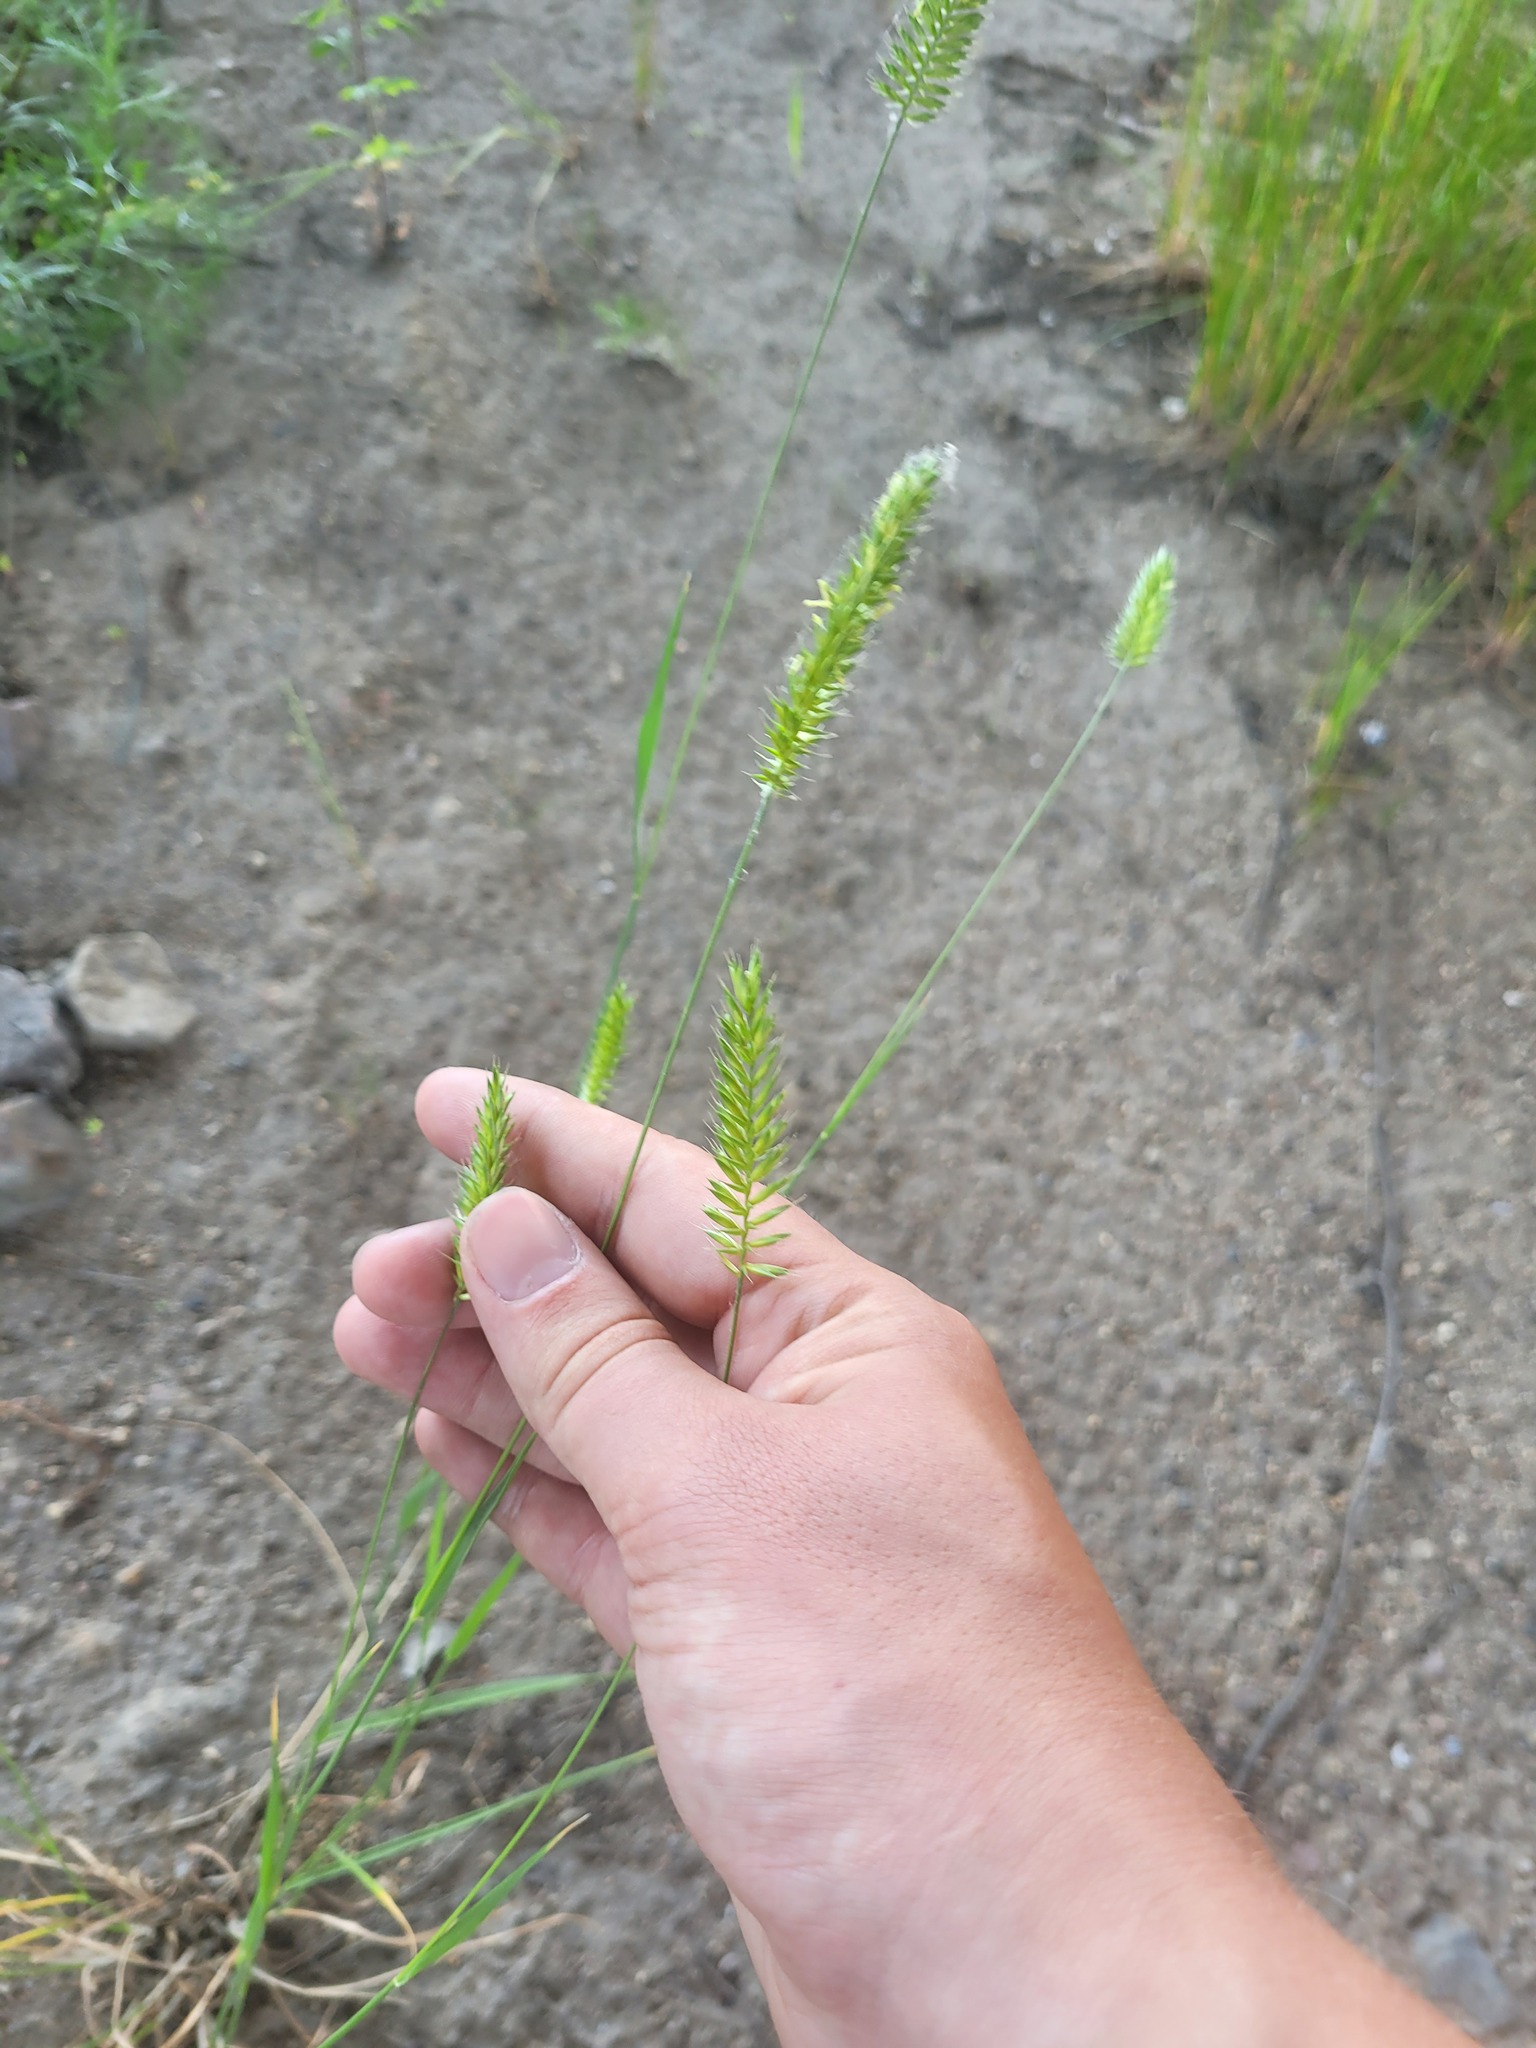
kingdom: Plantae
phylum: Tracheophyta
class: Liliopsida
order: Poales
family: Poaceae
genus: Agropyron
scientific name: Agropyron cristatum
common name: Crested wheatgrass
